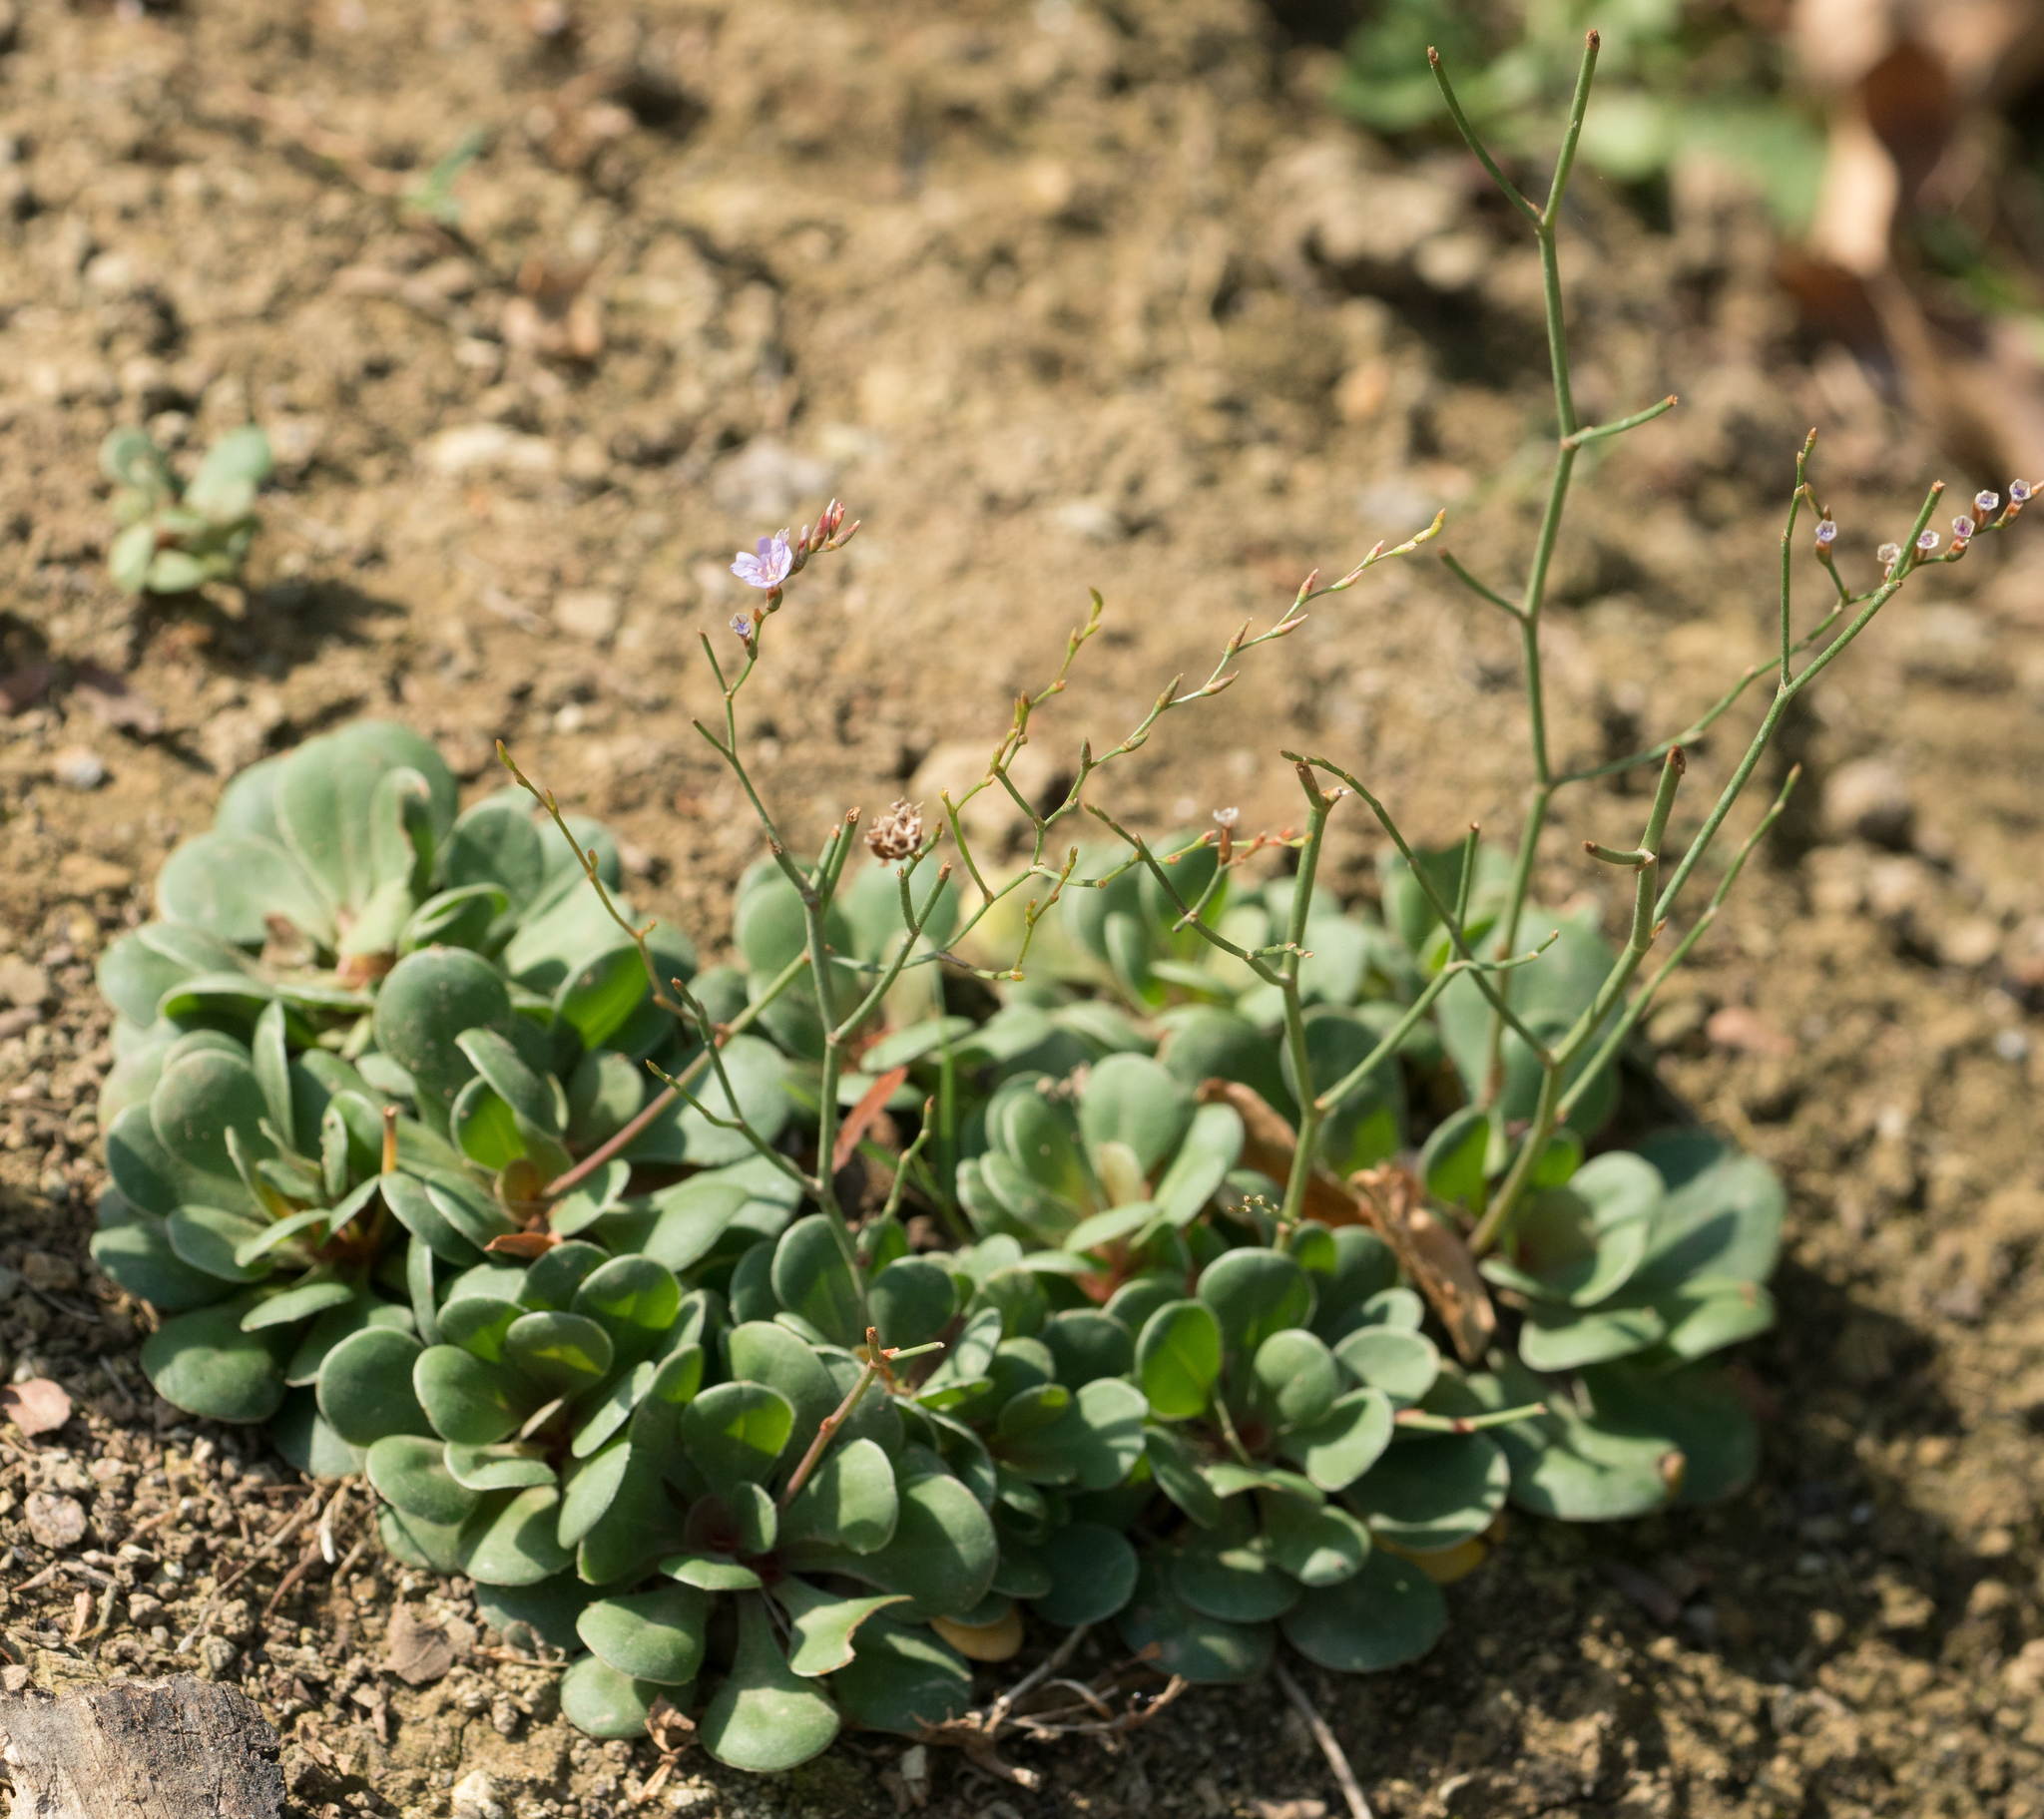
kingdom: Plantae
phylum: Tracheophyta
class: Magnoliopsida
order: Caryophyllales
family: Plumbaginaceae
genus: Limonium
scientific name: Limonium duriusculum
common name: European sea lavendar
